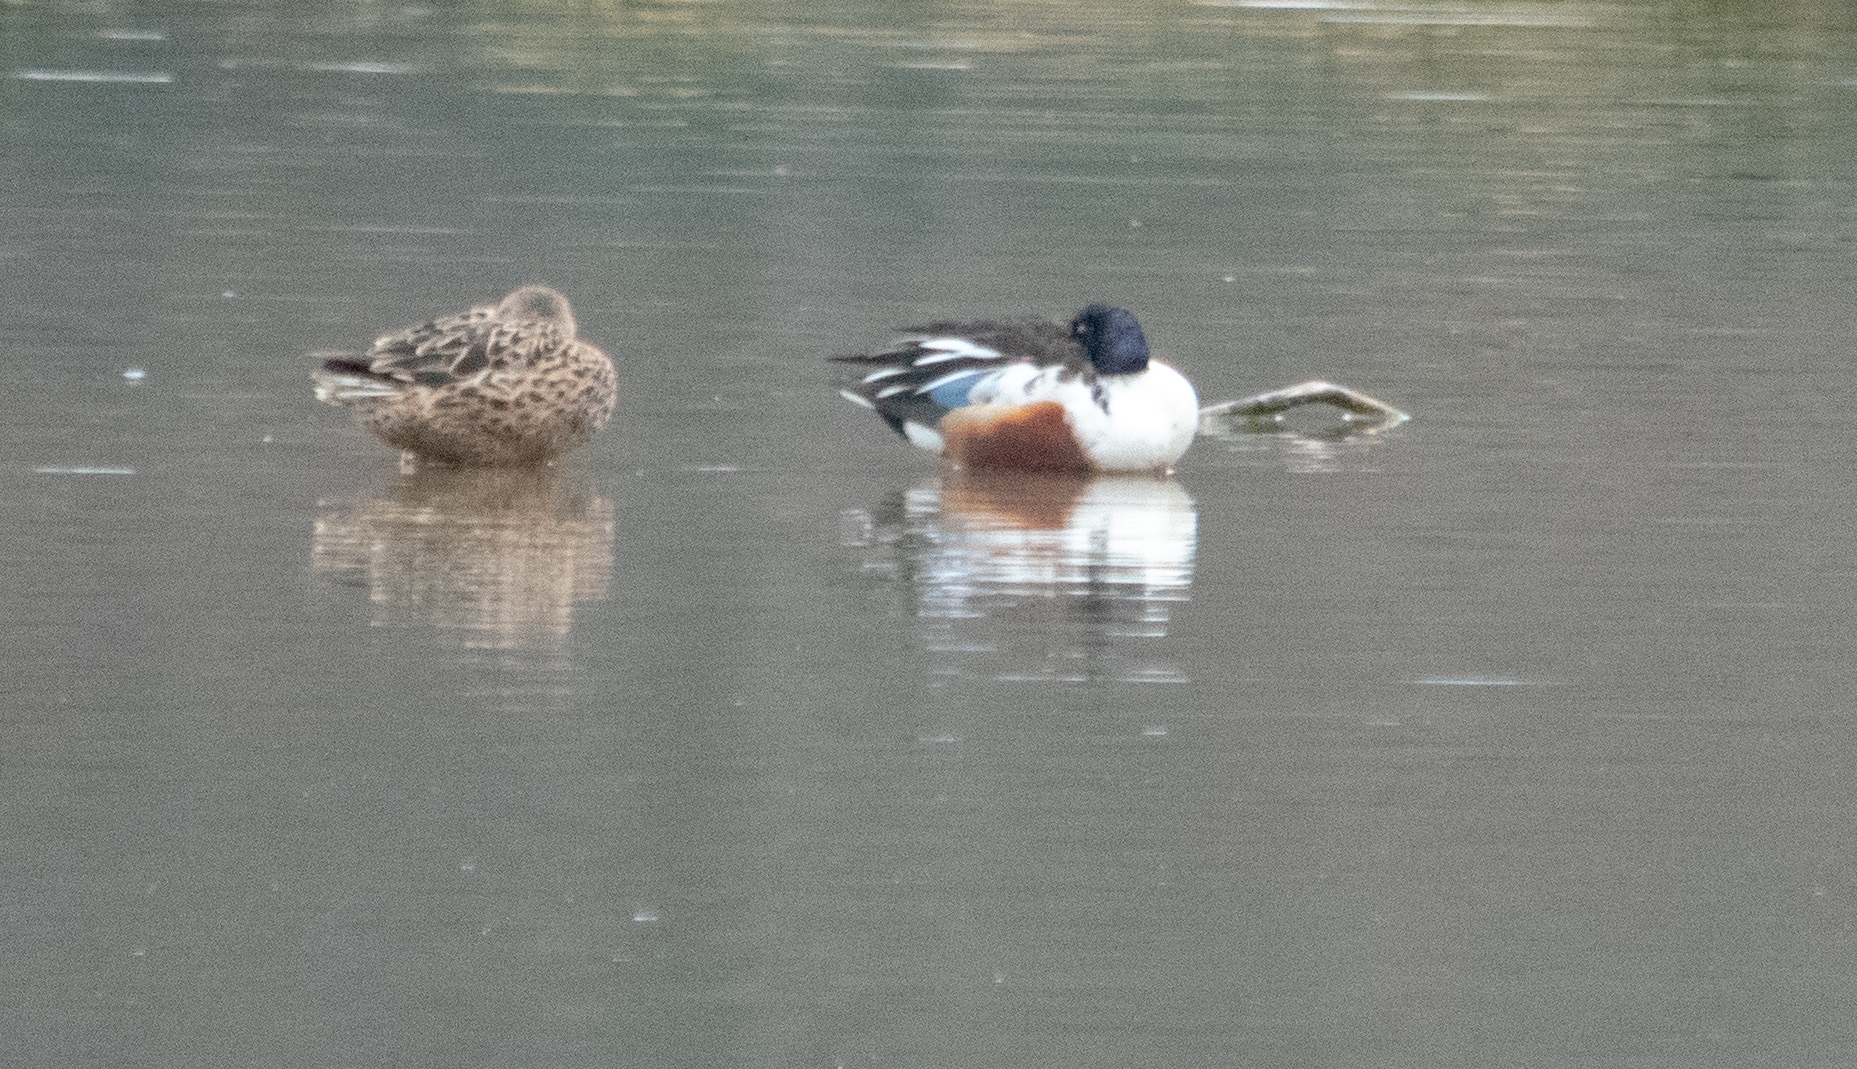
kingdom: Animalia
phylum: Chordata
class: Aves
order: Anseriformes
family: Anatidae
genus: Spatula
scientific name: Spatula clypeata
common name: Northern shoveler
